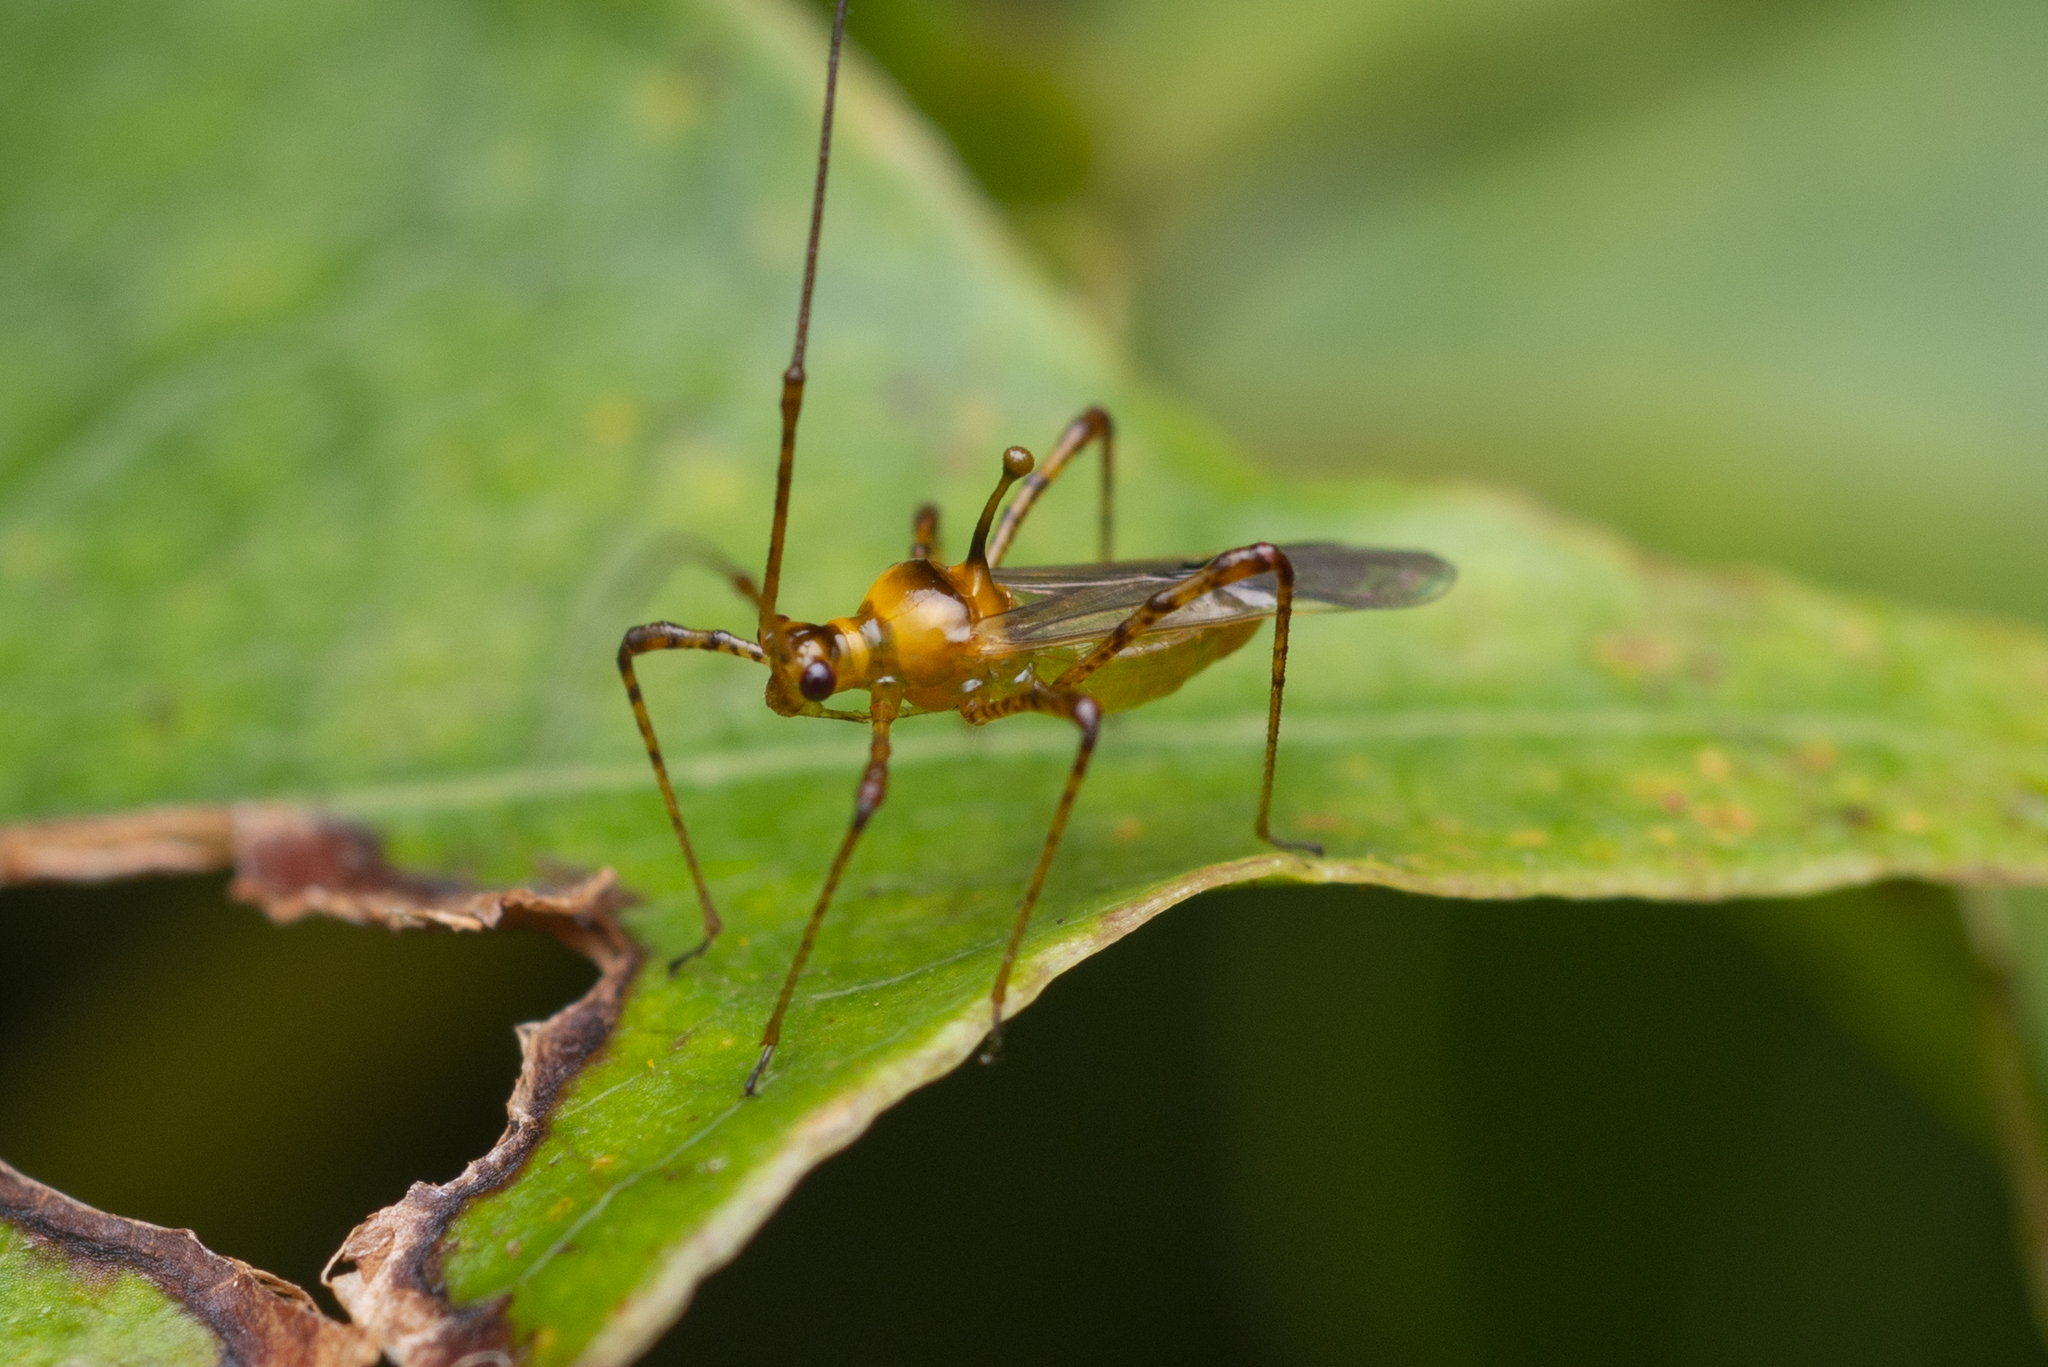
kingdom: Animalia
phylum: Arthropoda
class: Insecta
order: Hemiptera
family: Miridae
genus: Helopeltis
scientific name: Helopeltis theivora
